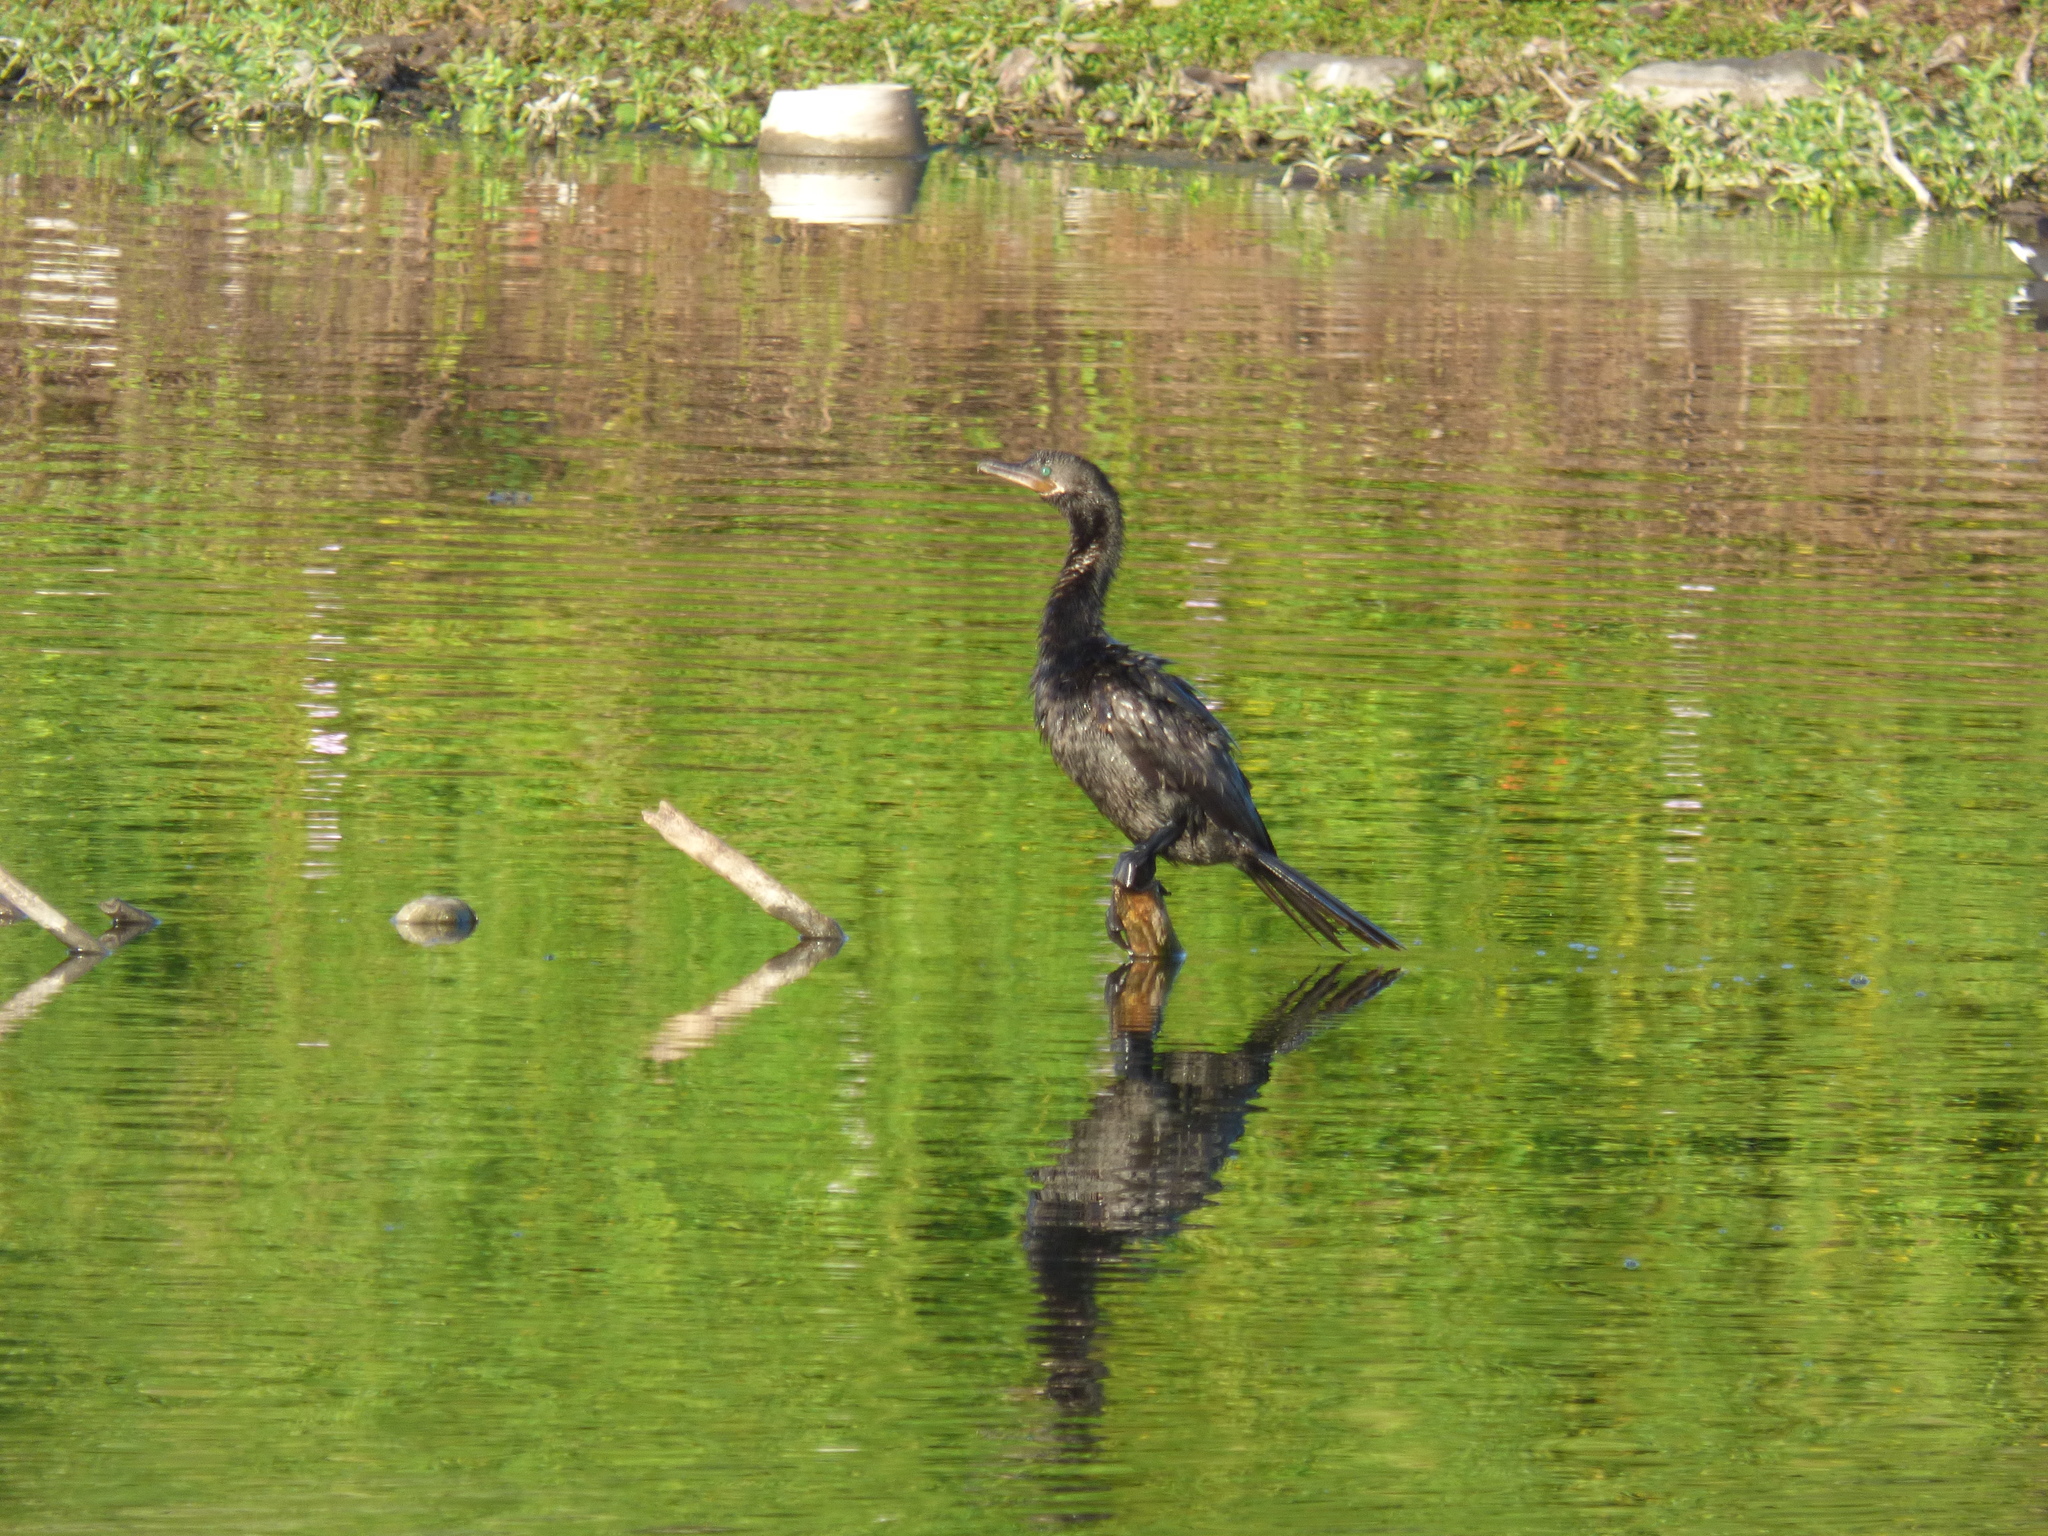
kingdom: Animalia
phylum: Chordata
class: Aves
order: Suliformes
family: Phalacrocoracidae
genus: Phalacrocorax
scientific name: Phalacrocorax brasilianus
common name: Neotropic cormorant
